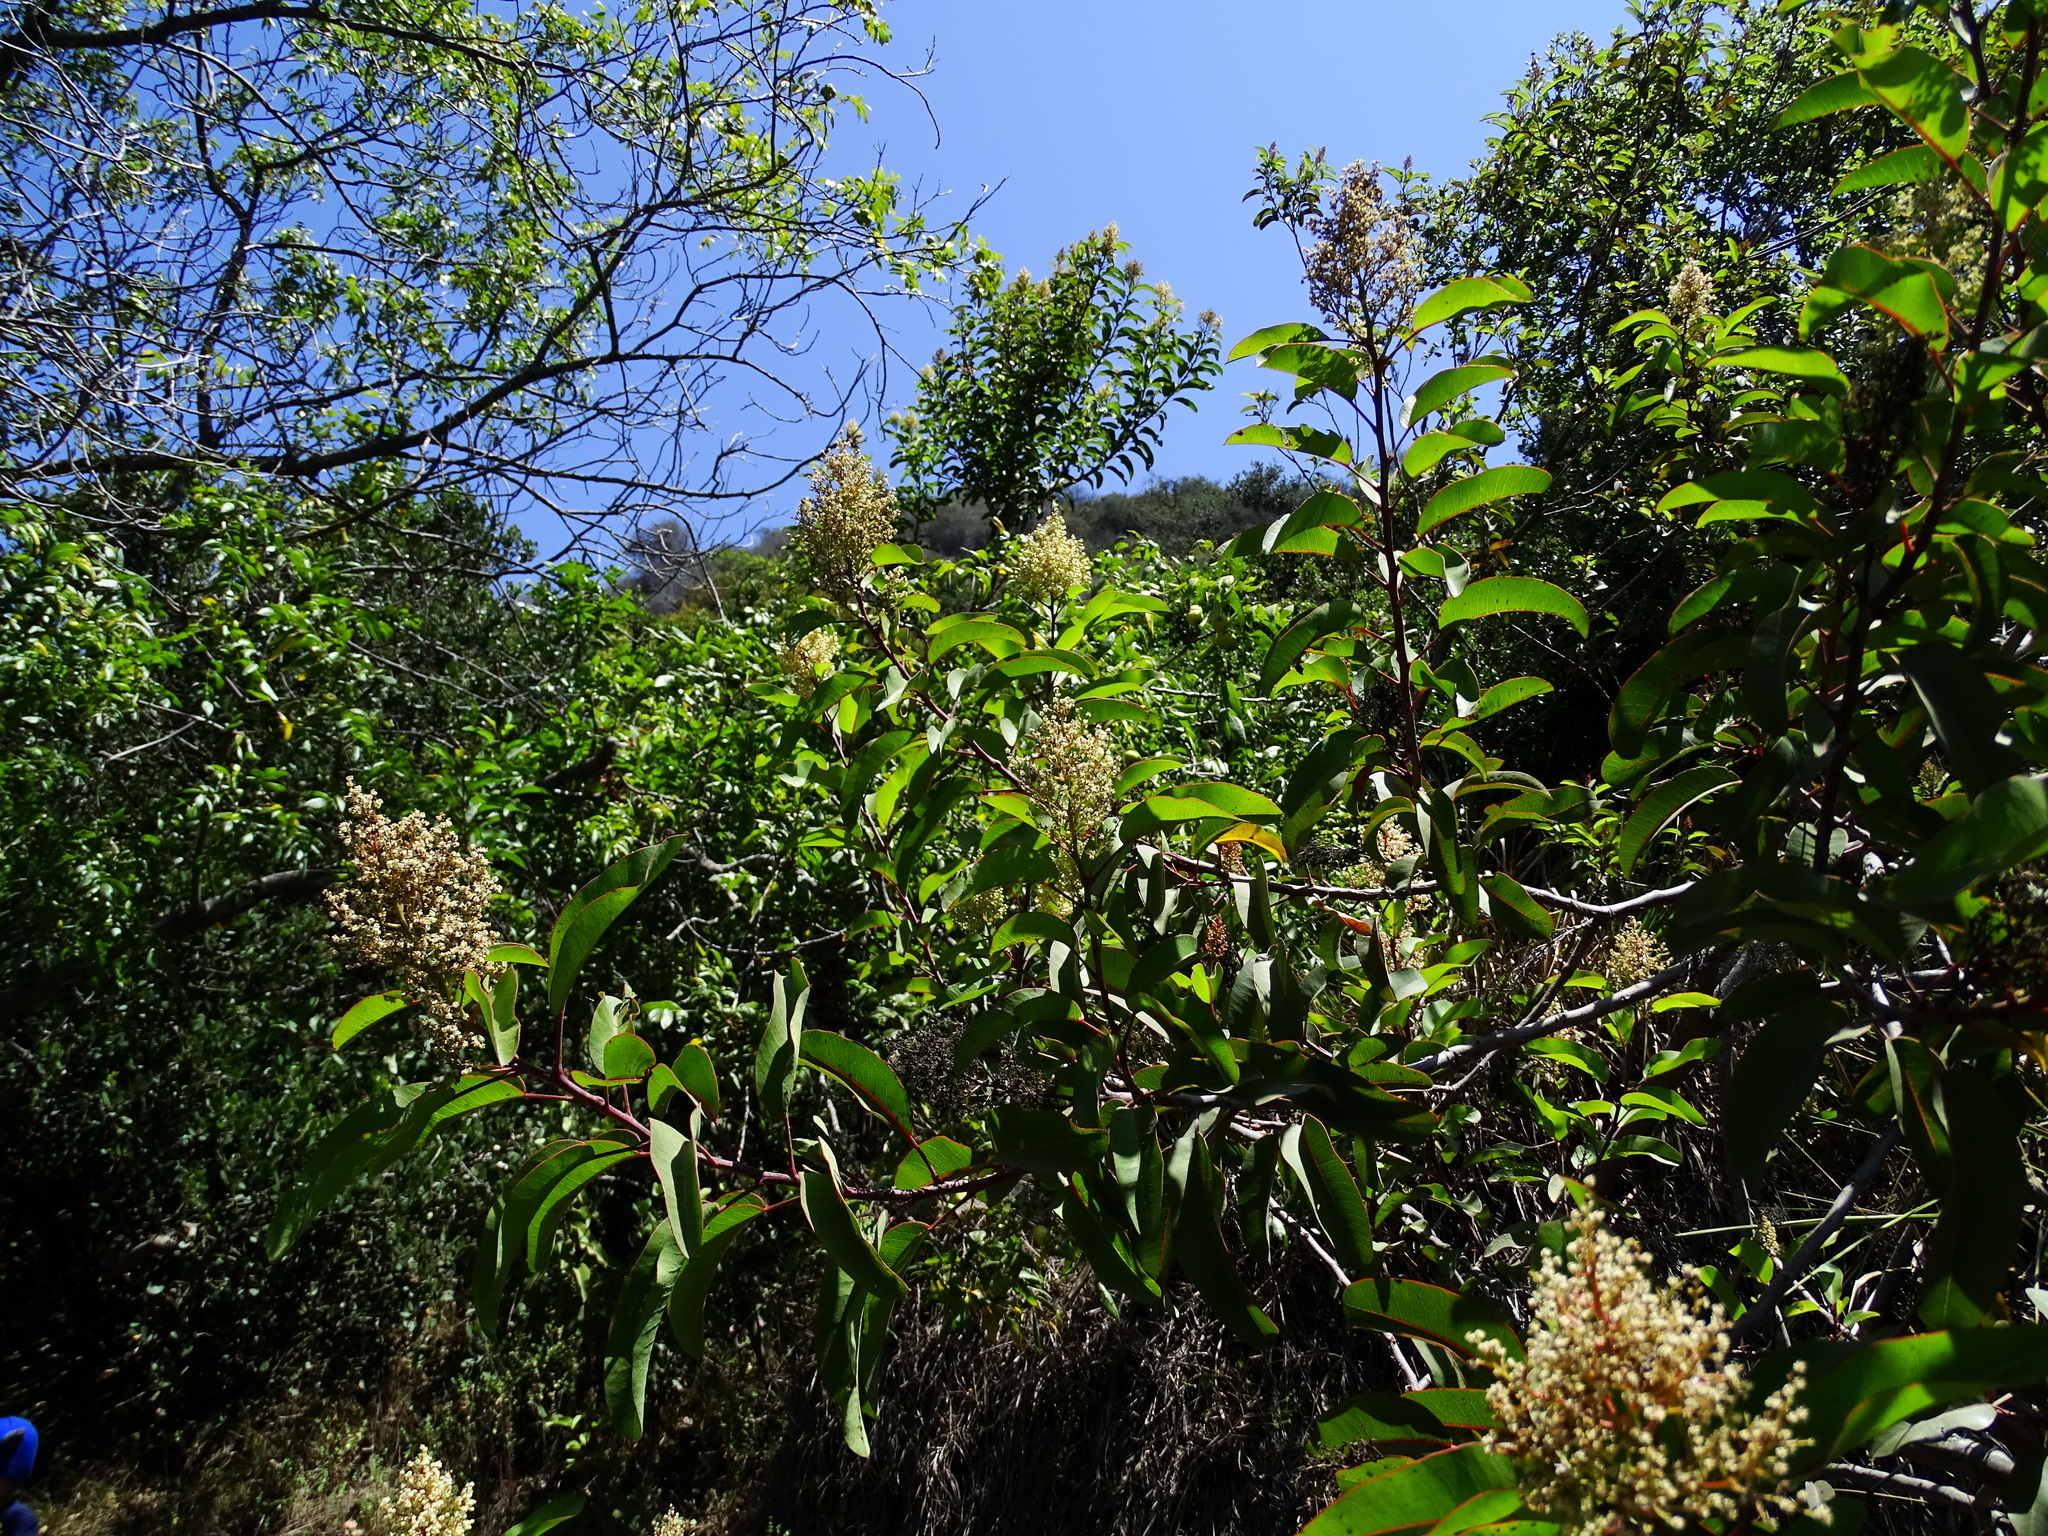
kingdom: Plantae
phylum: Tracheophyta
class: Magnoliopsida
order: Sapindales
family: Anacardiaceae
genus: Malosma
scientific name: Malosma laurina
